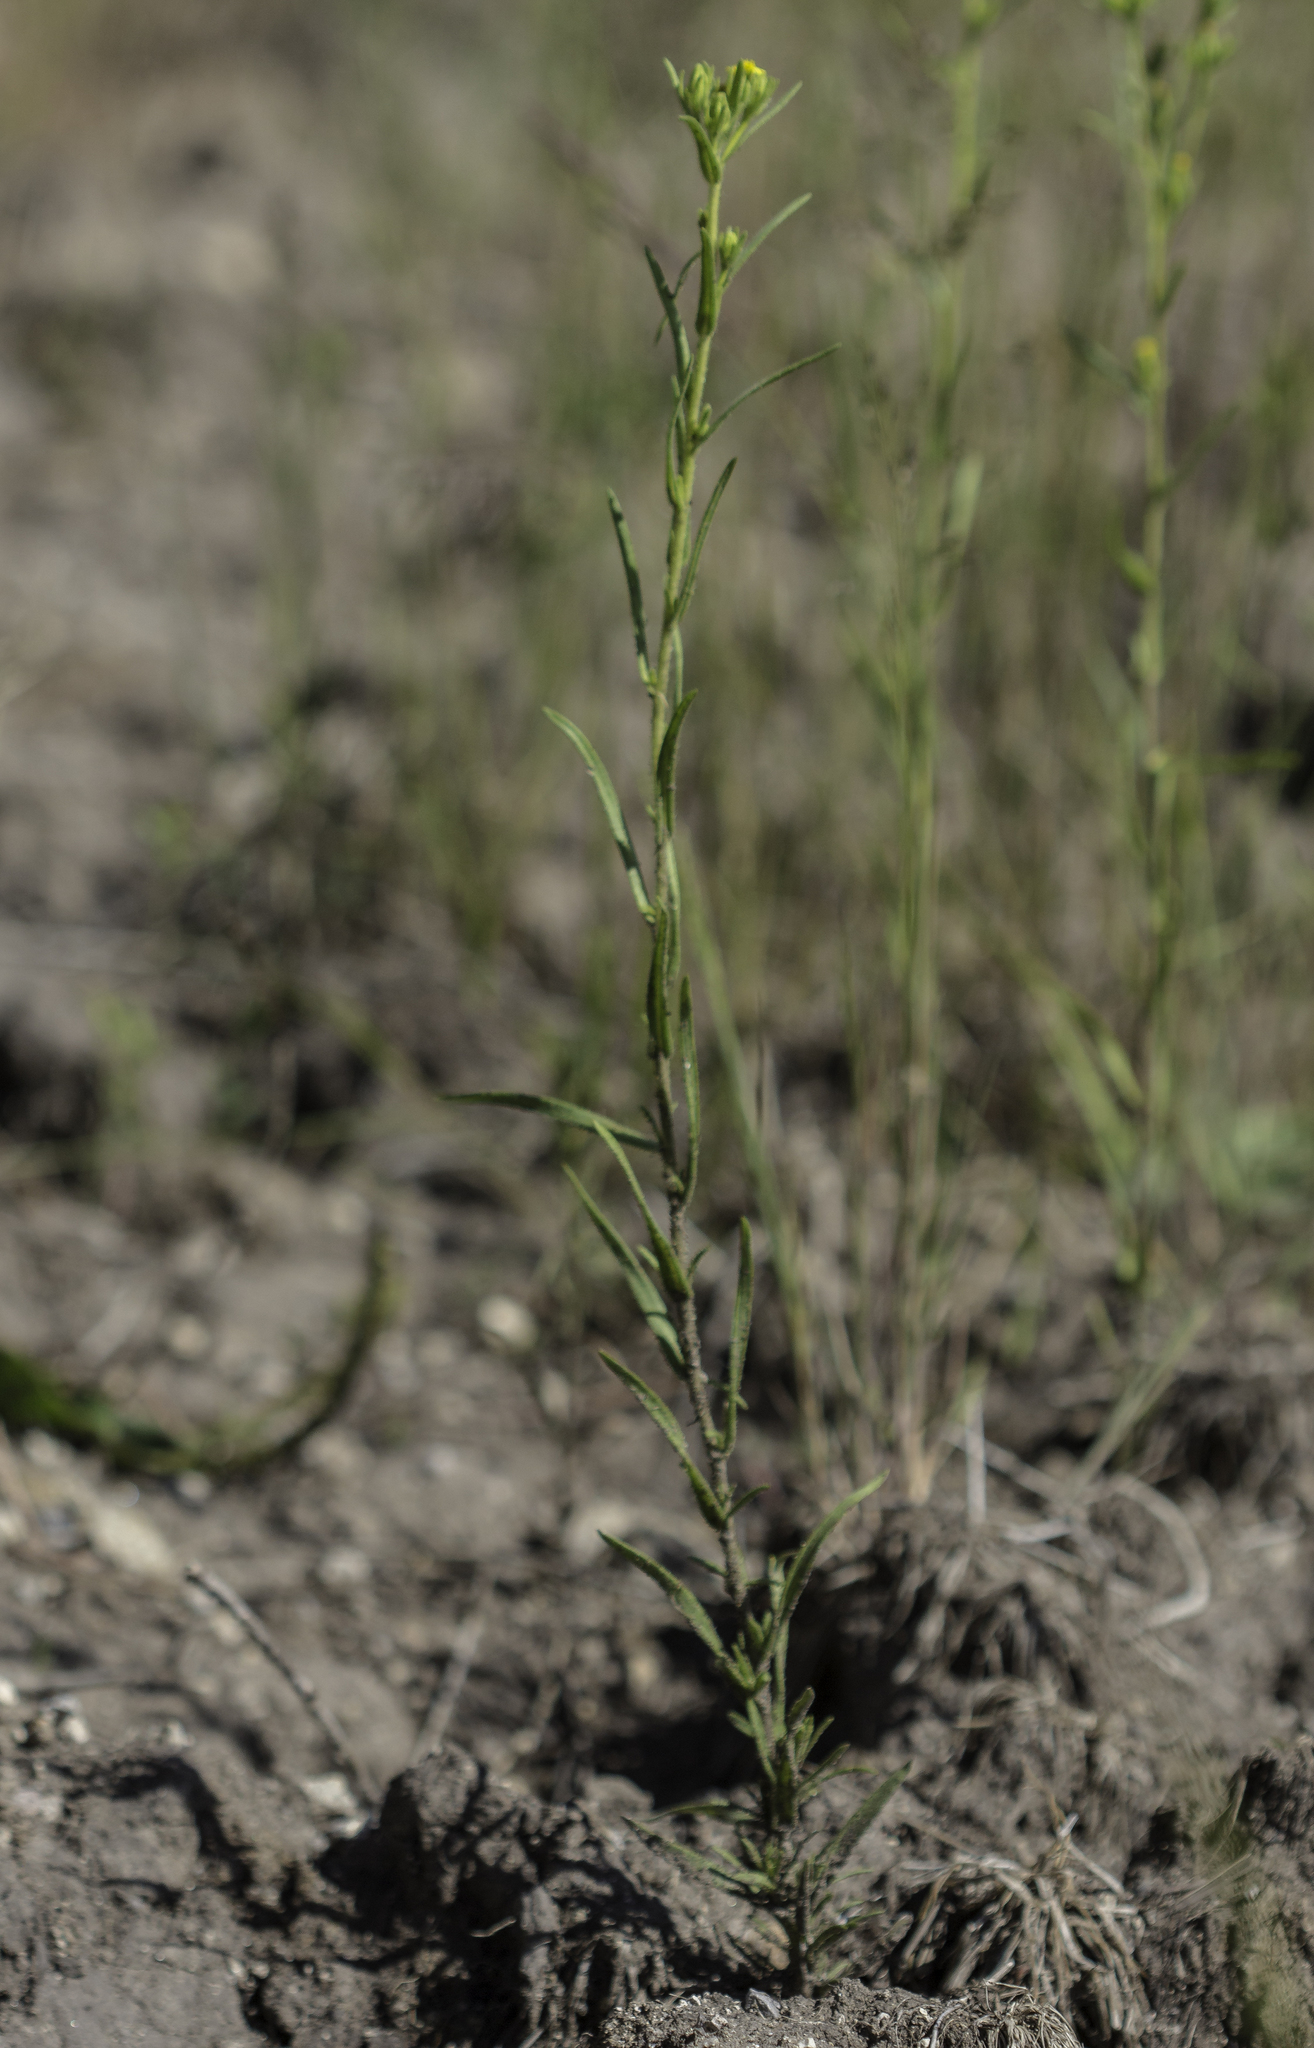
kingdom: Plantae
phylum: Tracheophyta
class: Magnoliopsida
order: Asterales
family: Asteraceae
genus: Madia
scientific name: Madia glomerata
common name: Mountain tarweed
